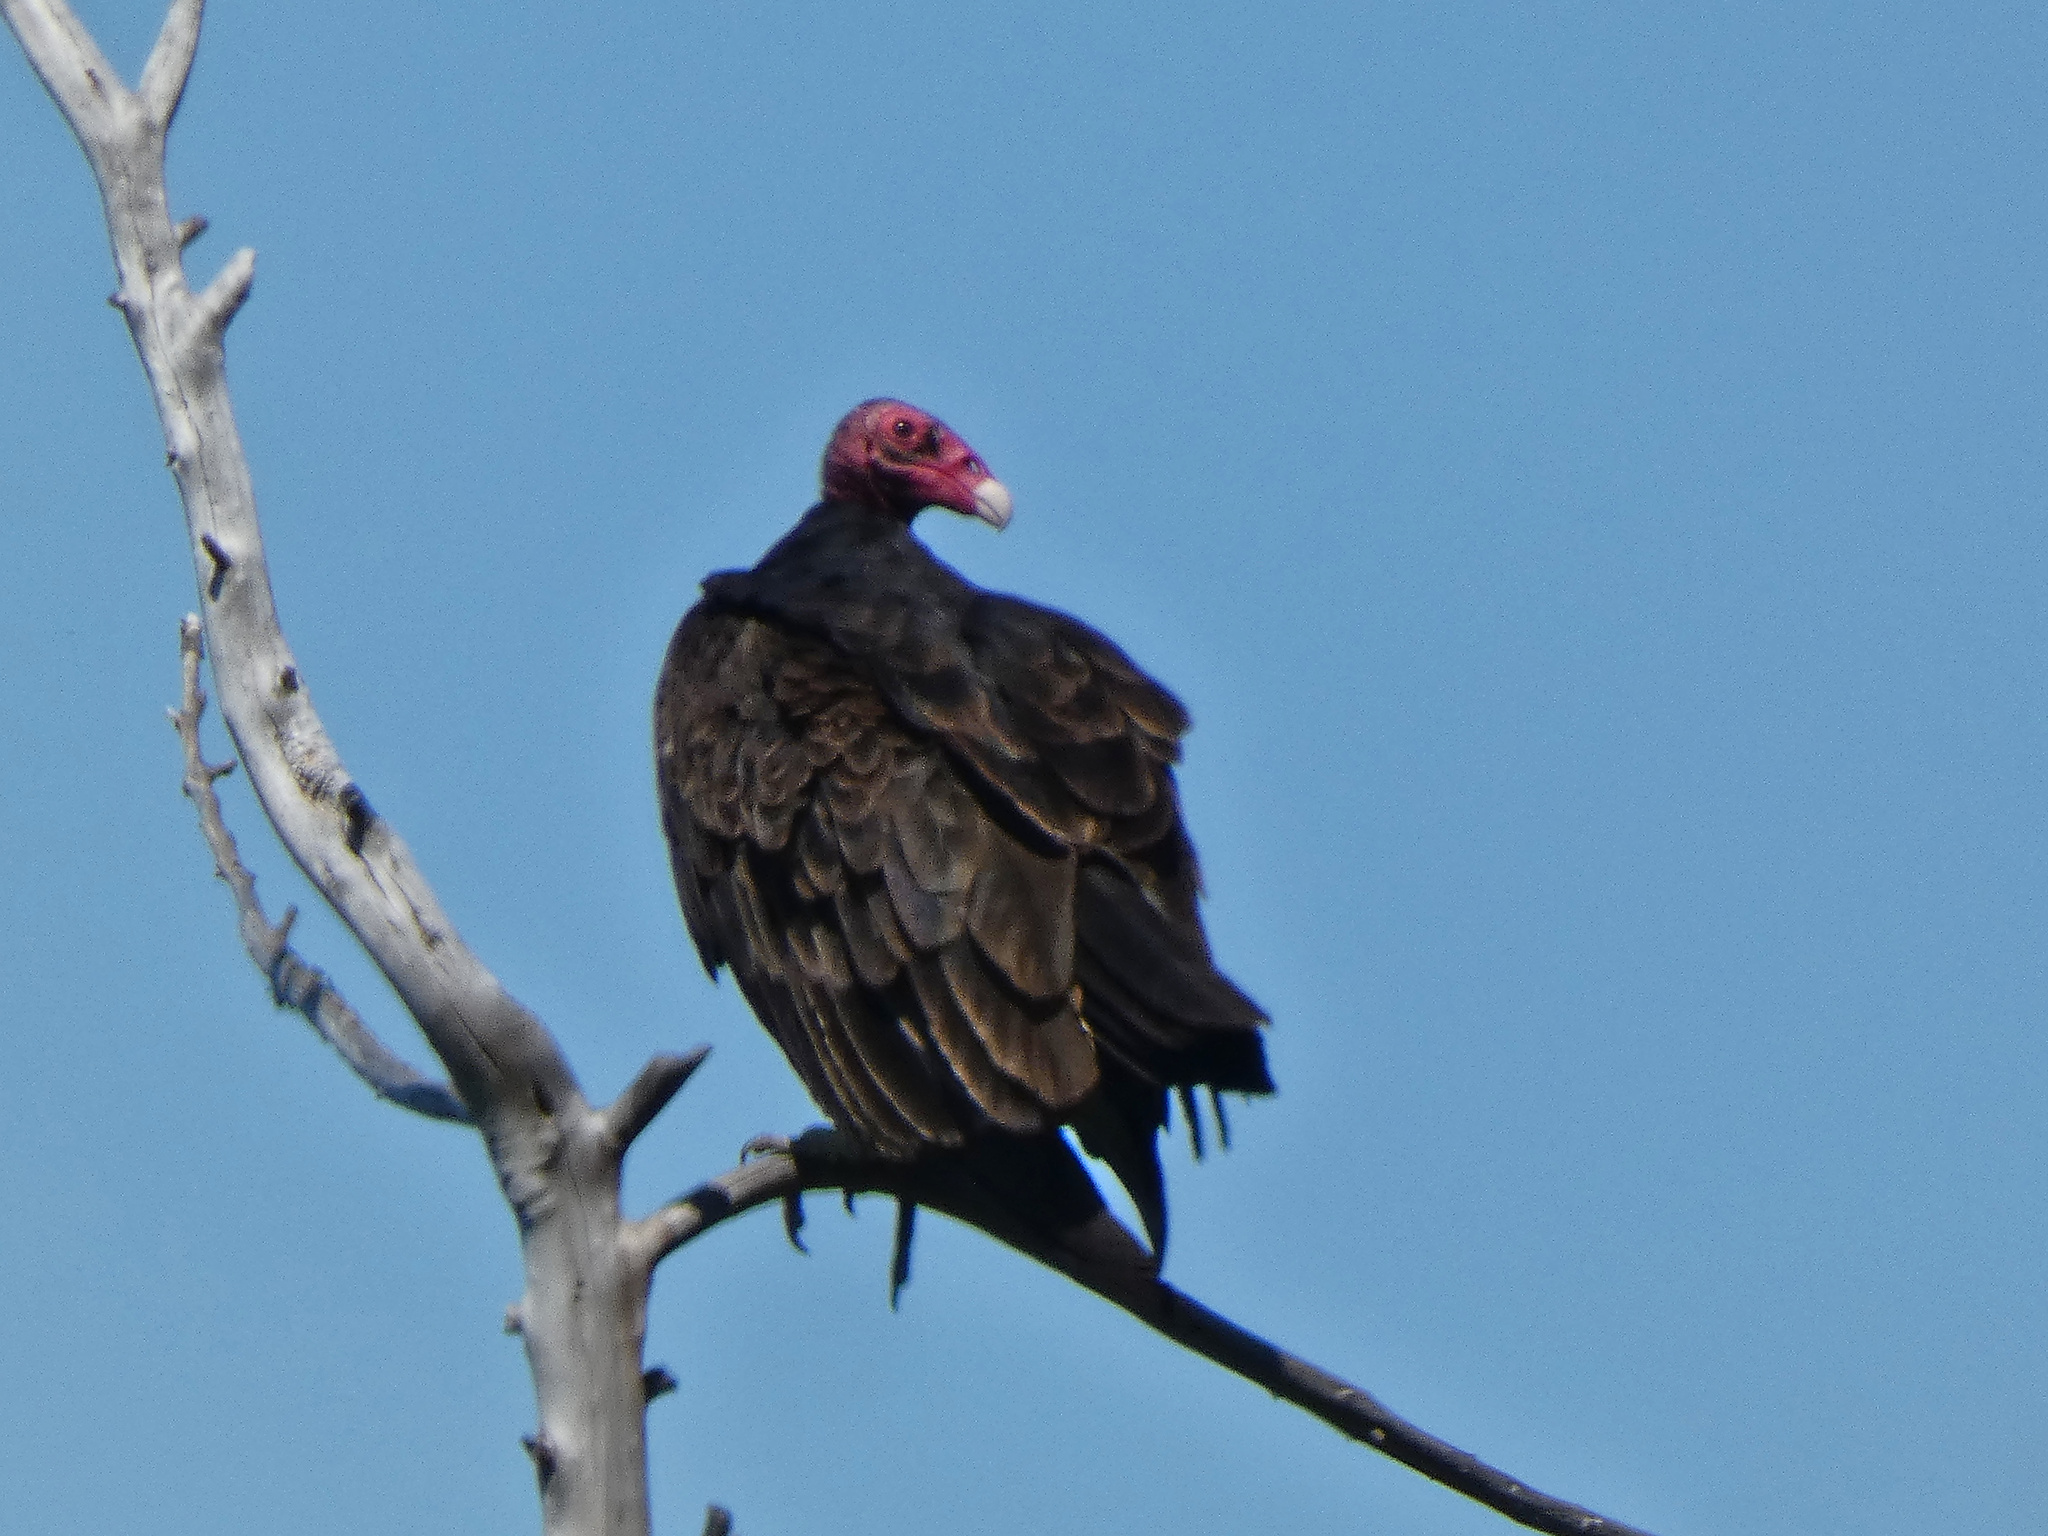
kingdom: Animalia
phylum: Chordata
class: Aves
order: Accipitriformes
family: Cathartidae
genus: Cathartes
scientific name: Cathartes aura
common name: Turkey vulture
